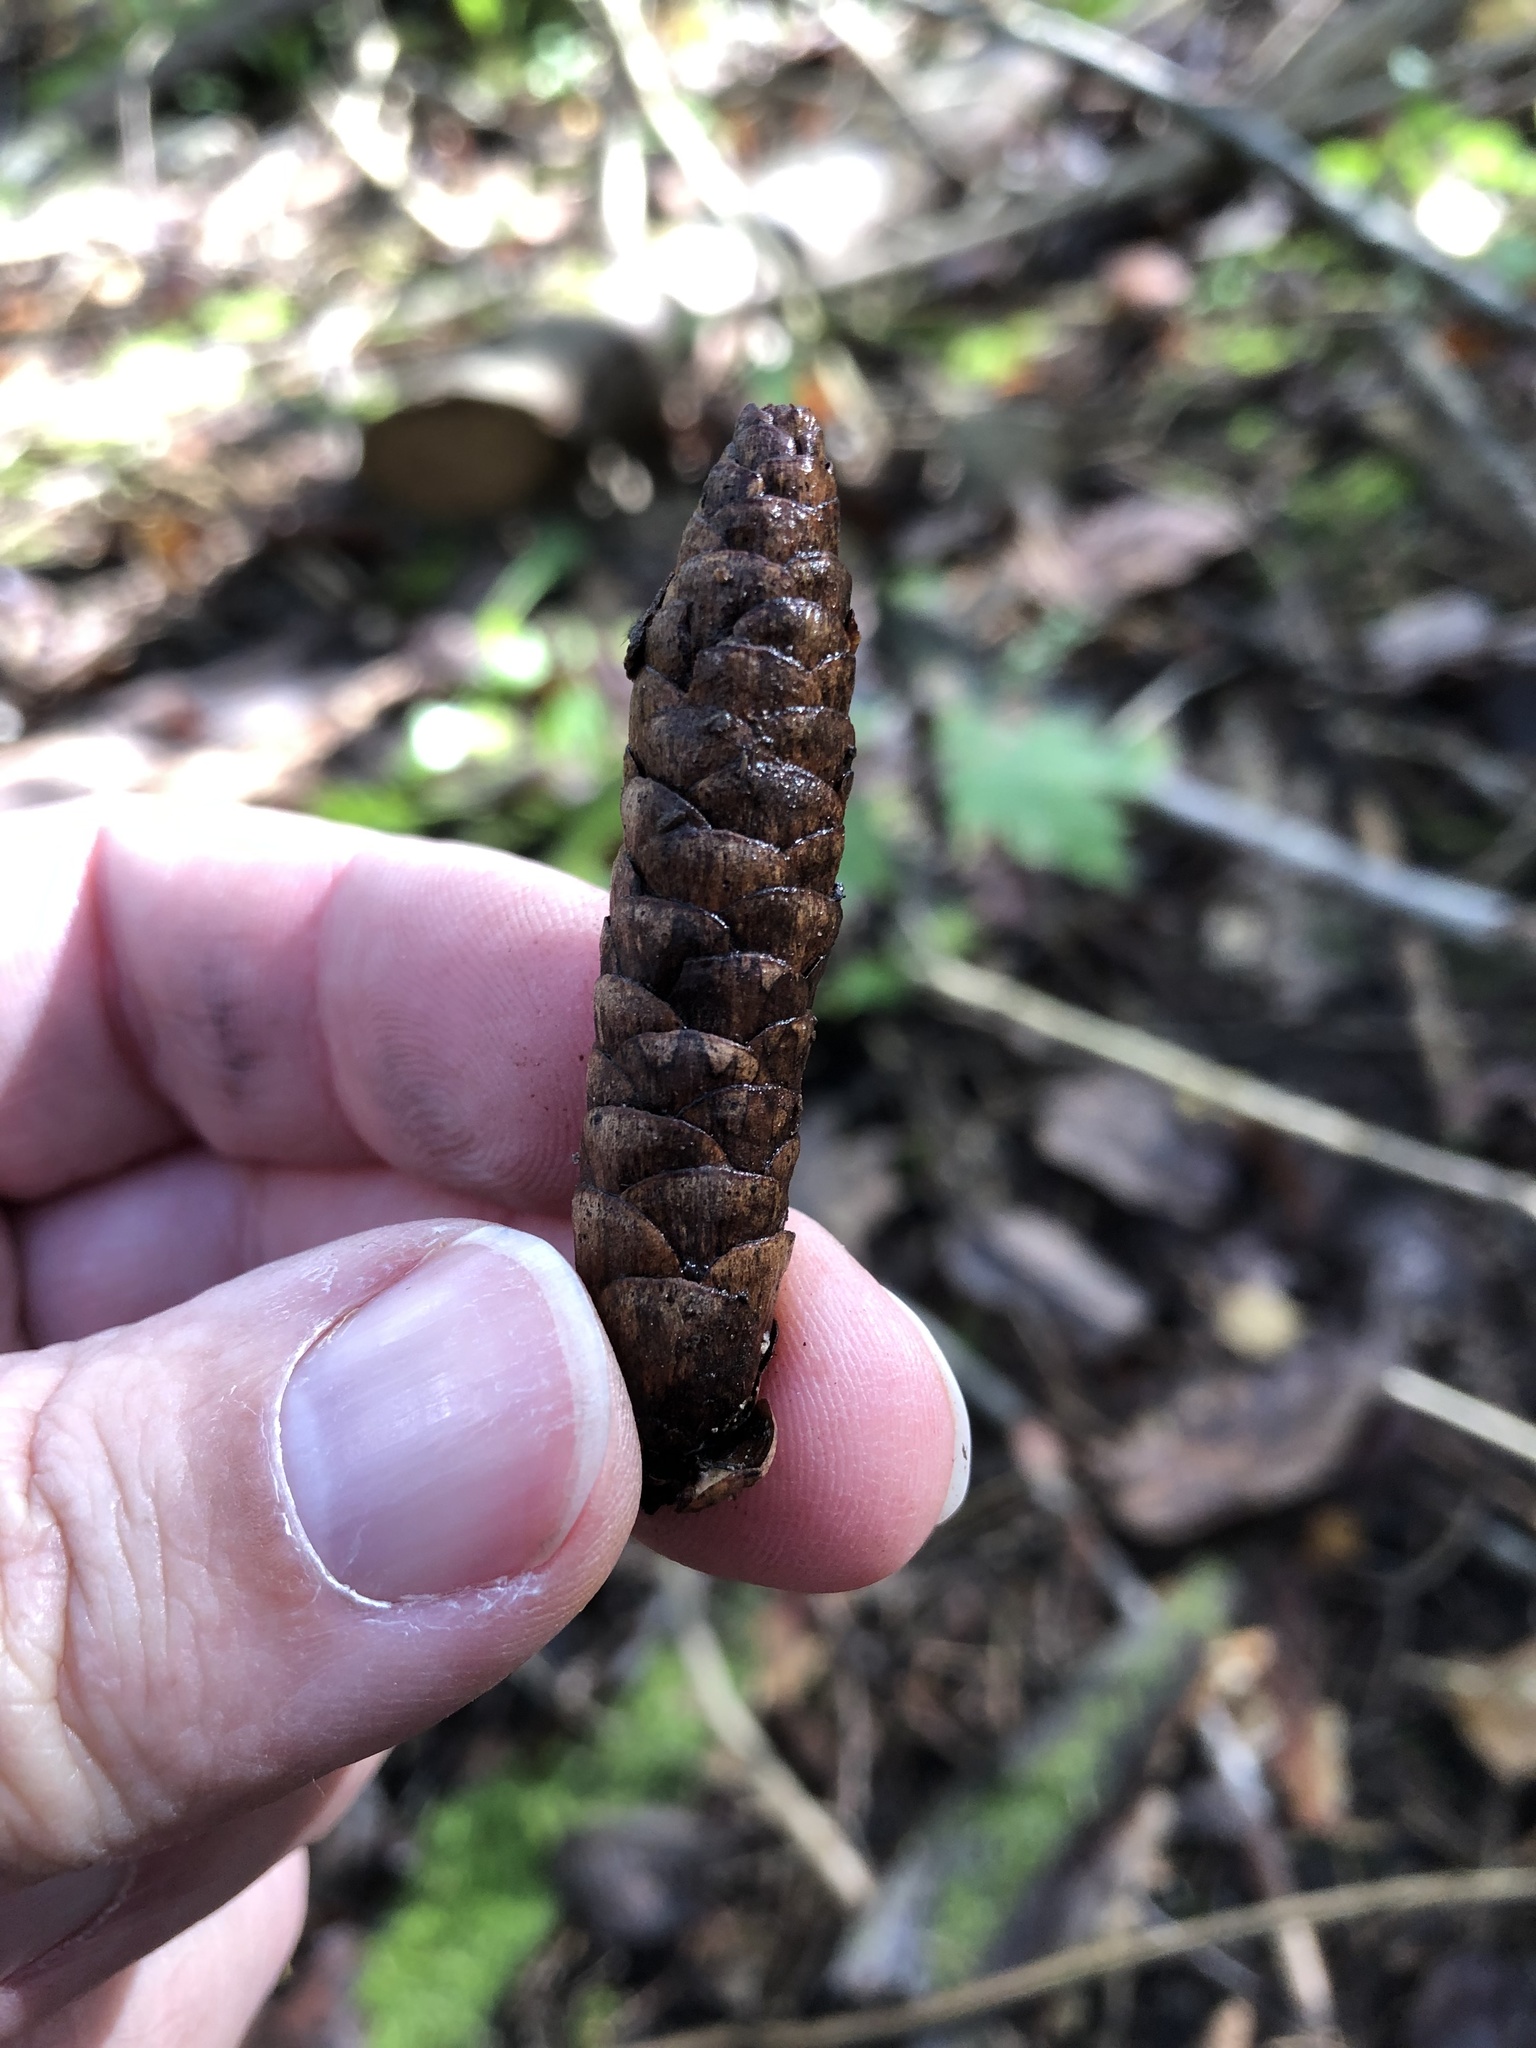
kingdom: Plantae
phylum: Tracheophyta
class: Pinopsida
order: Pinales
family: Pinaceae
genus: Picea
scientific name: Picea glauca
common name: White spruce
